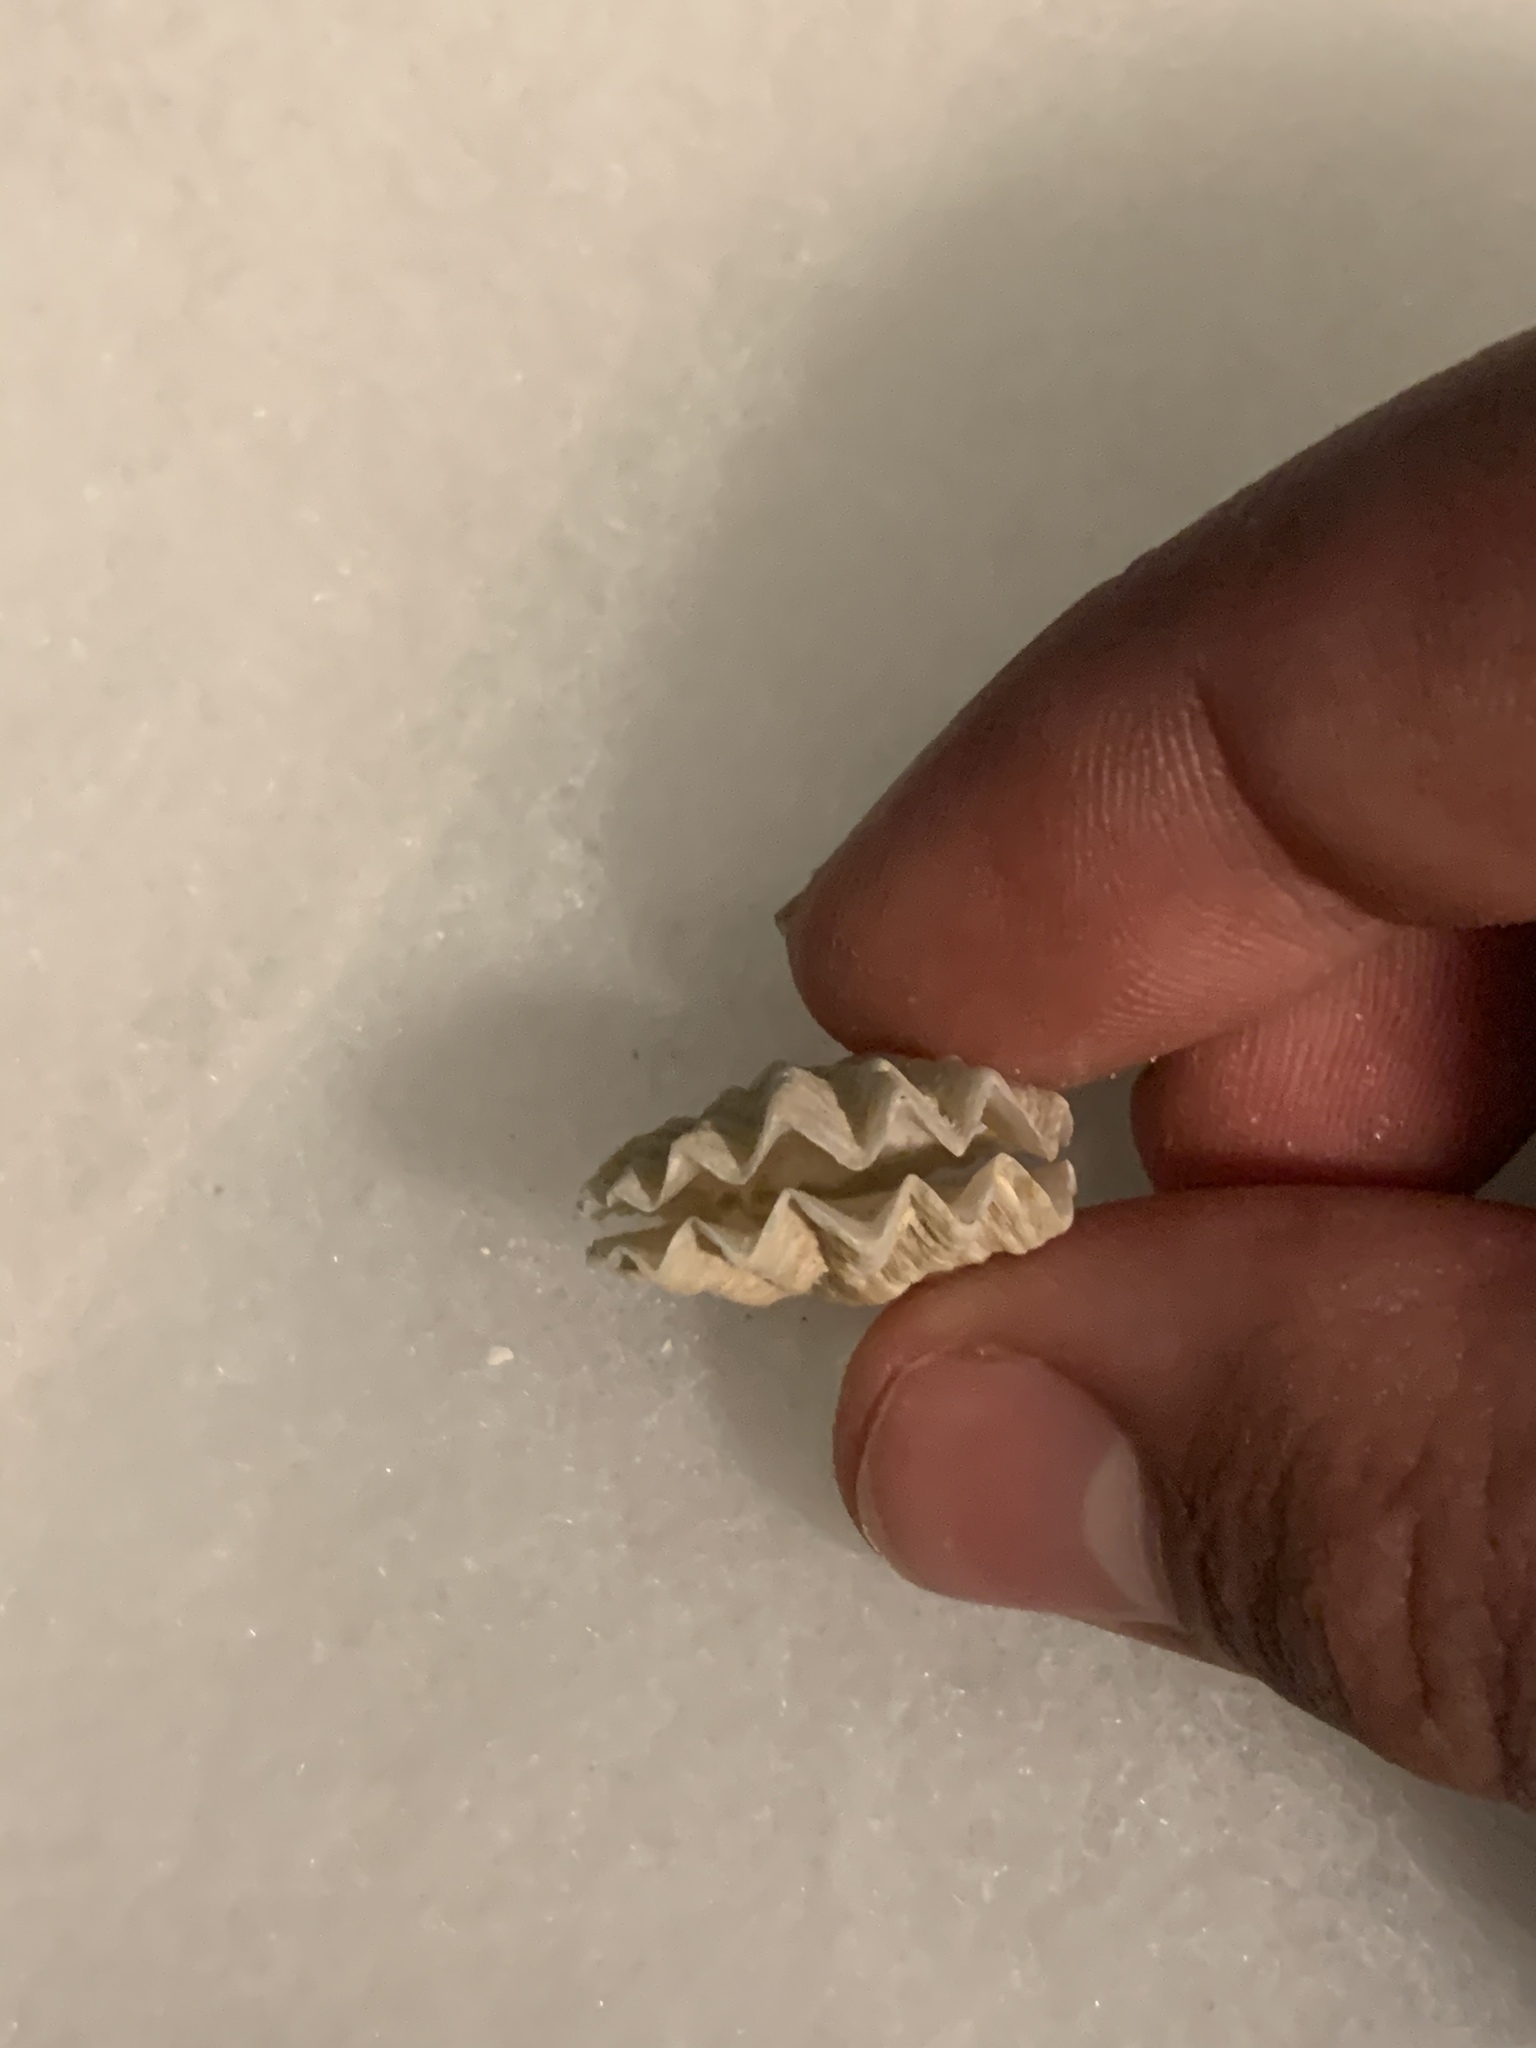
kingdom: Animalia
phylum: Mollusca
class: Bivalvia
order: Pectinida
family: Plicatulidae
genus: Plicatula
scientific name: Plicatula gibbosa
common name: Atlantic kitten's paw
